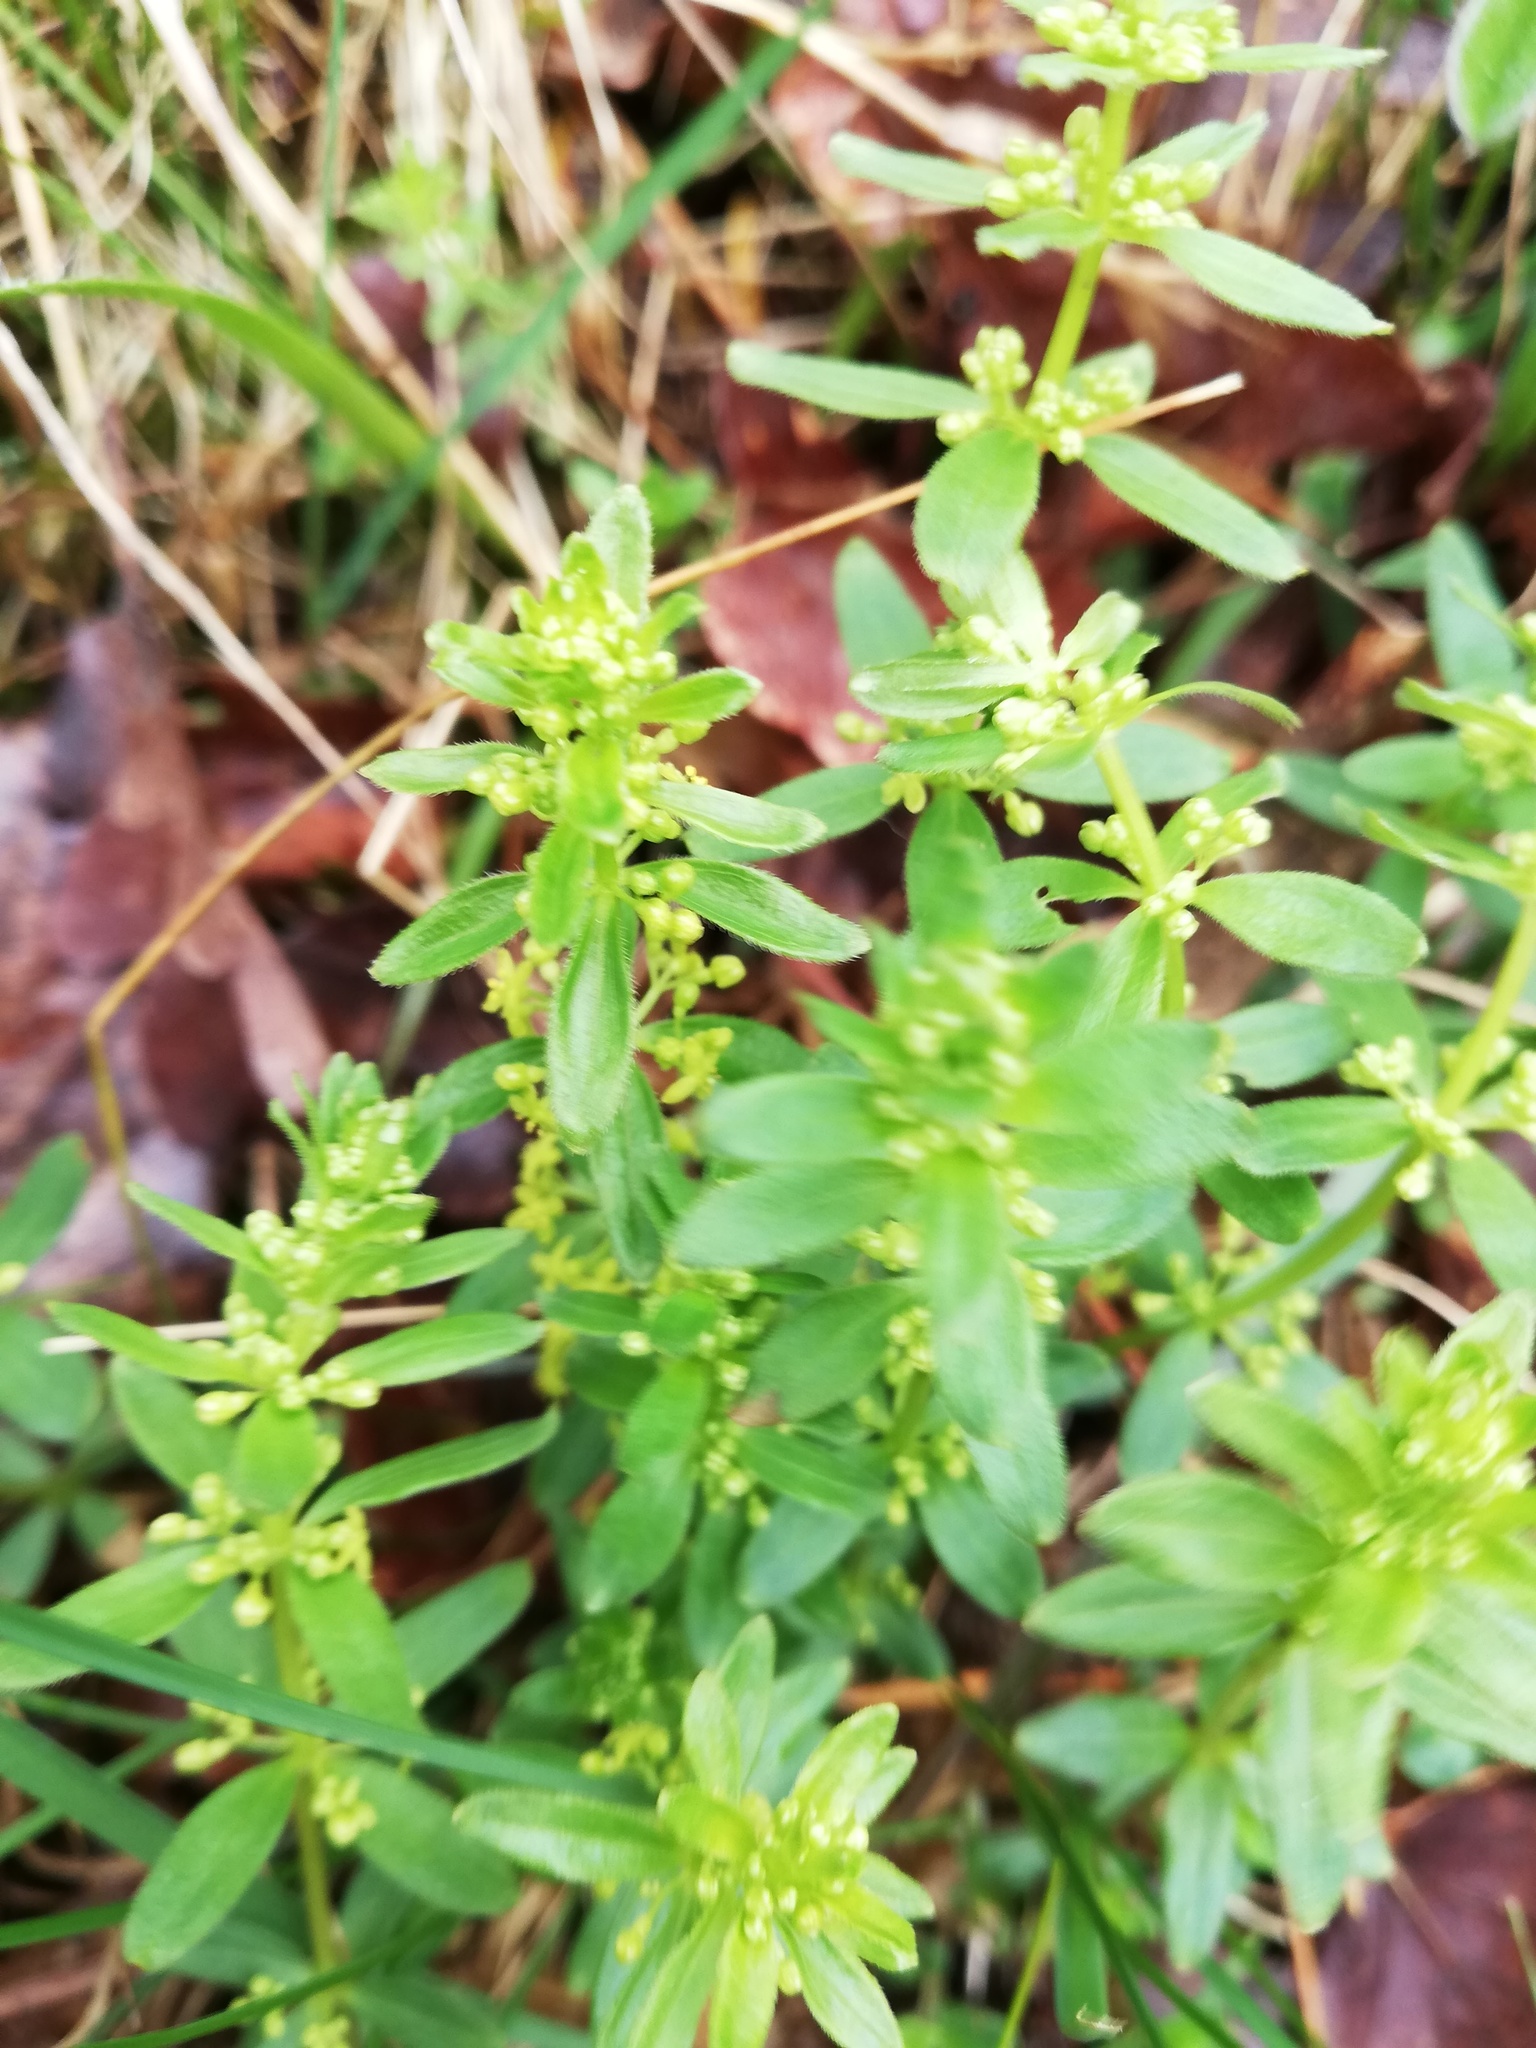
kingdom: Plantae
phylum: Tracheophyta
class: Magnoliopsida
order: Gentianales
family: Rubiaceae
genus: Cruciata
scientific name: Cruciata glabra
